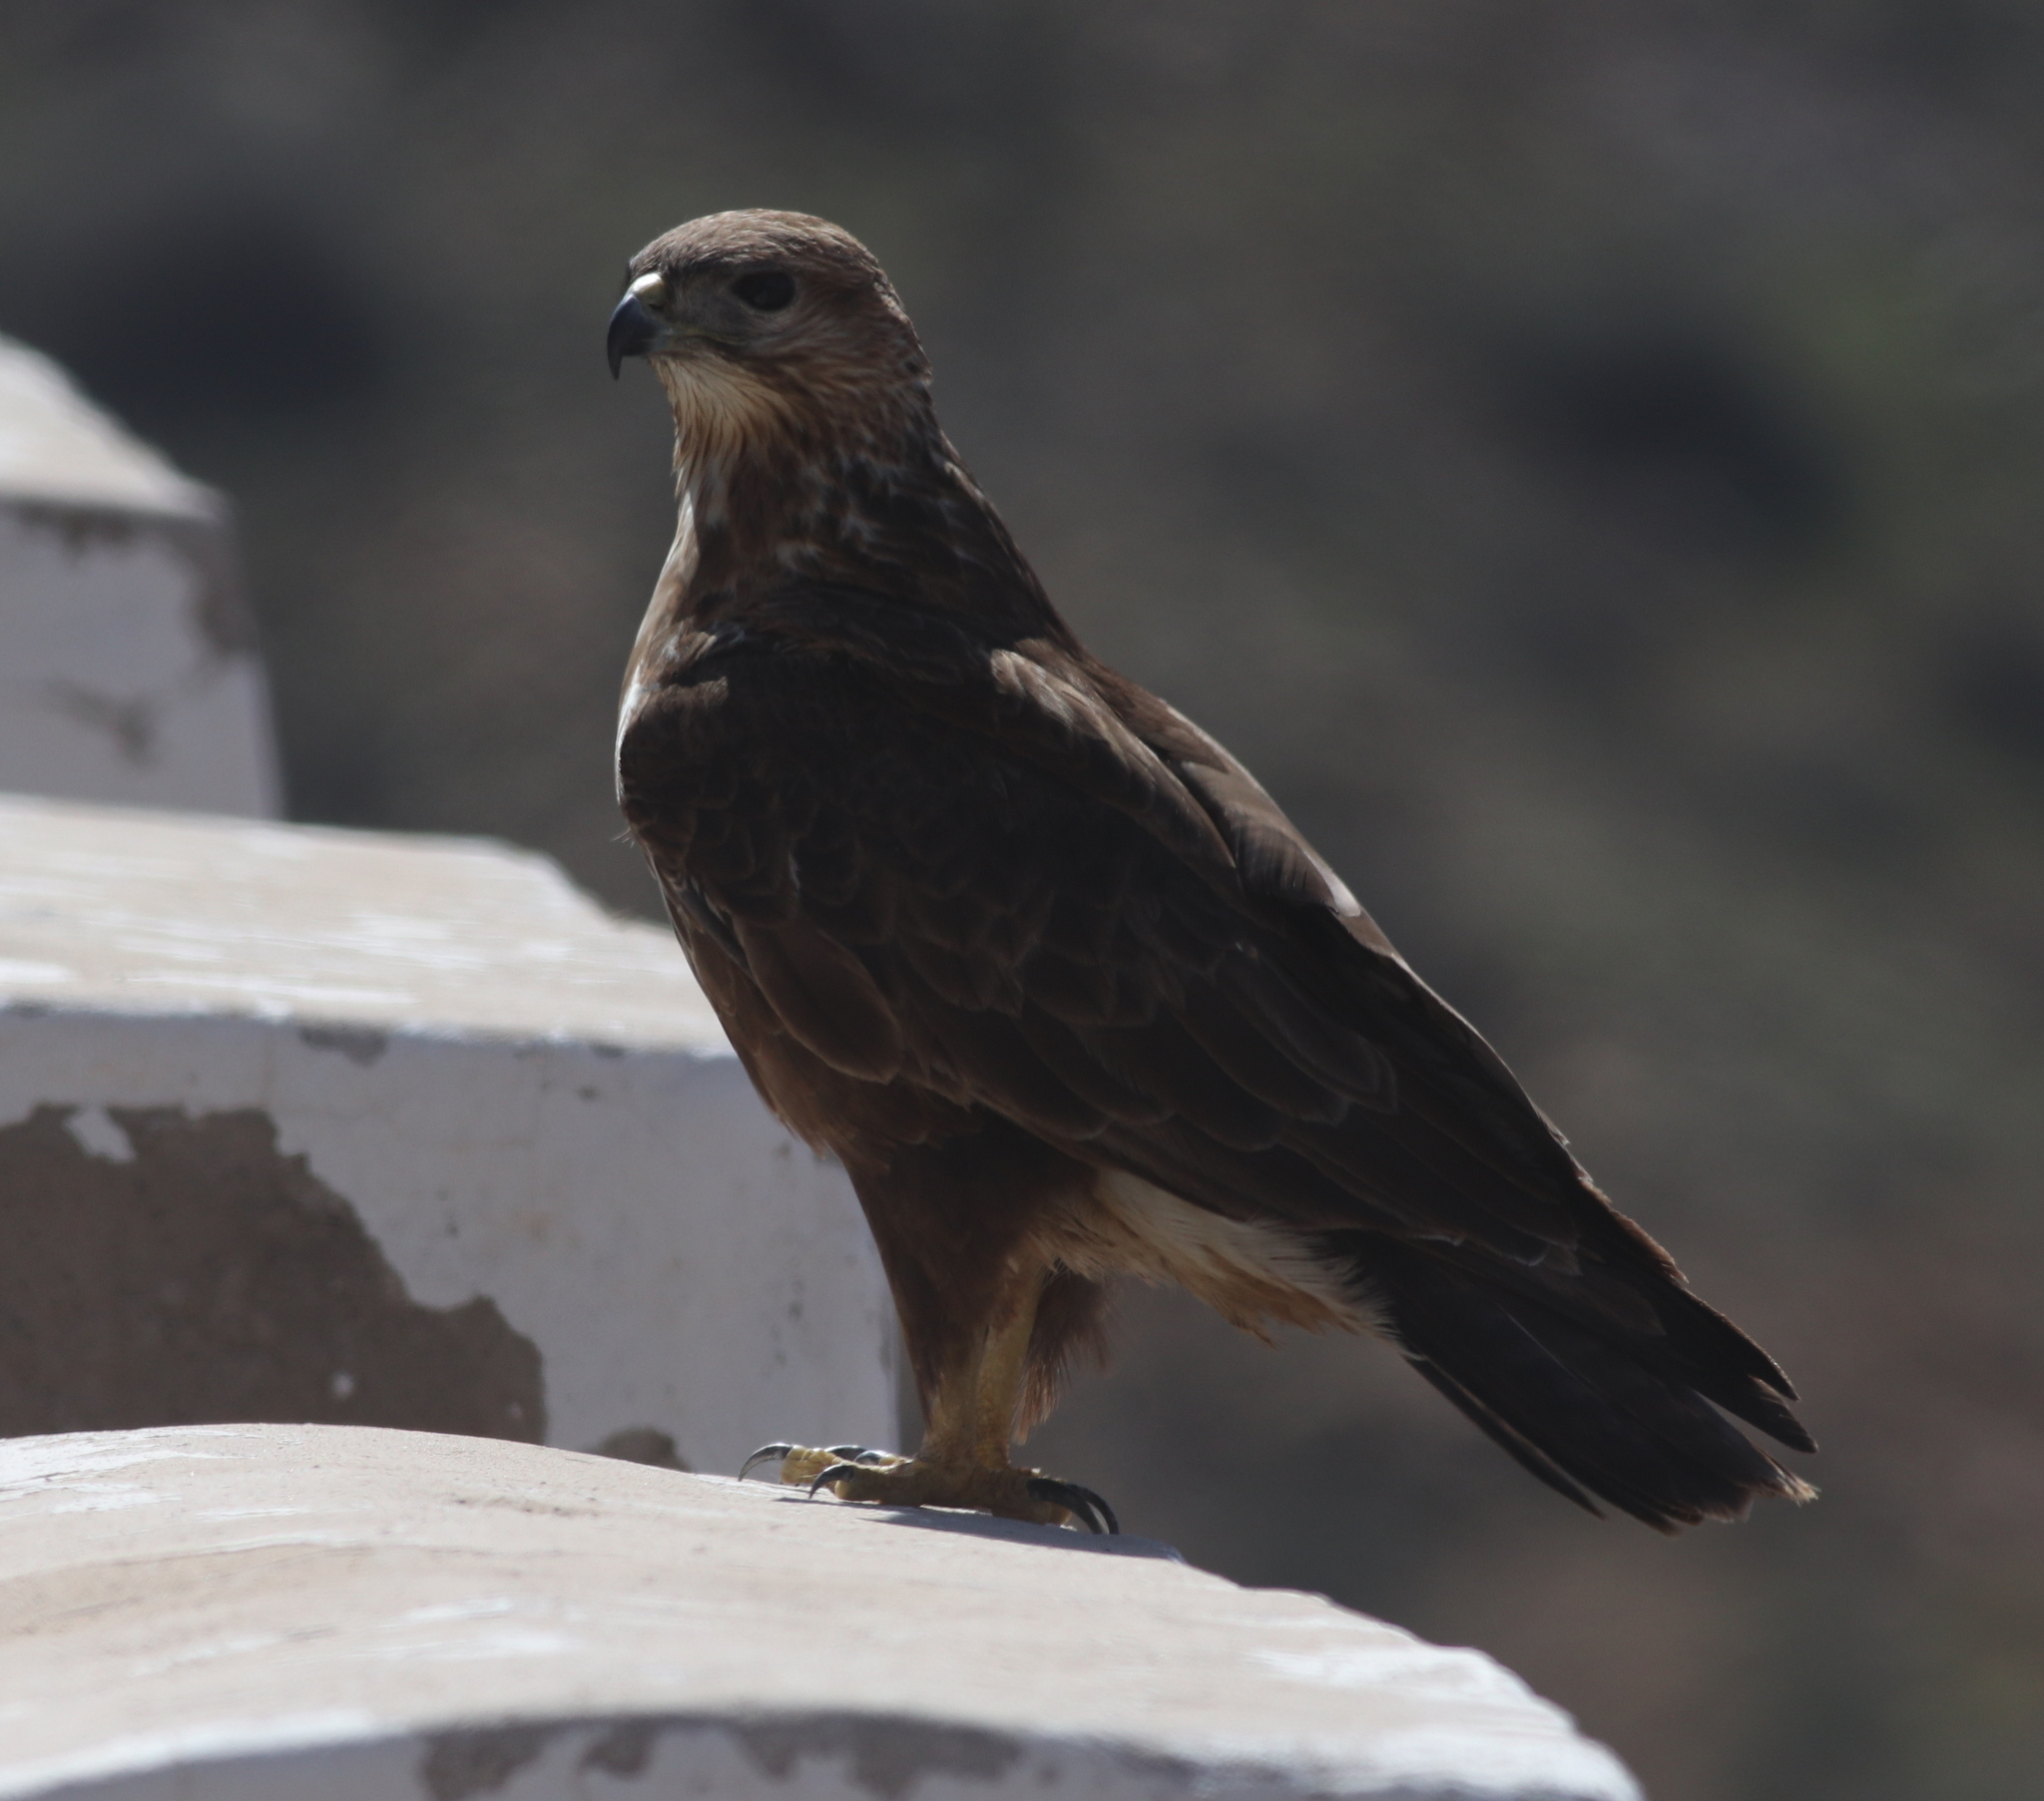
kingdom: Animalia
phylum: Chordata
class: Aves
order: Accipitriformes
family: Accipitridae
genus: Buteo
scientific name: Buteo buteo
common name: Common buzzard
